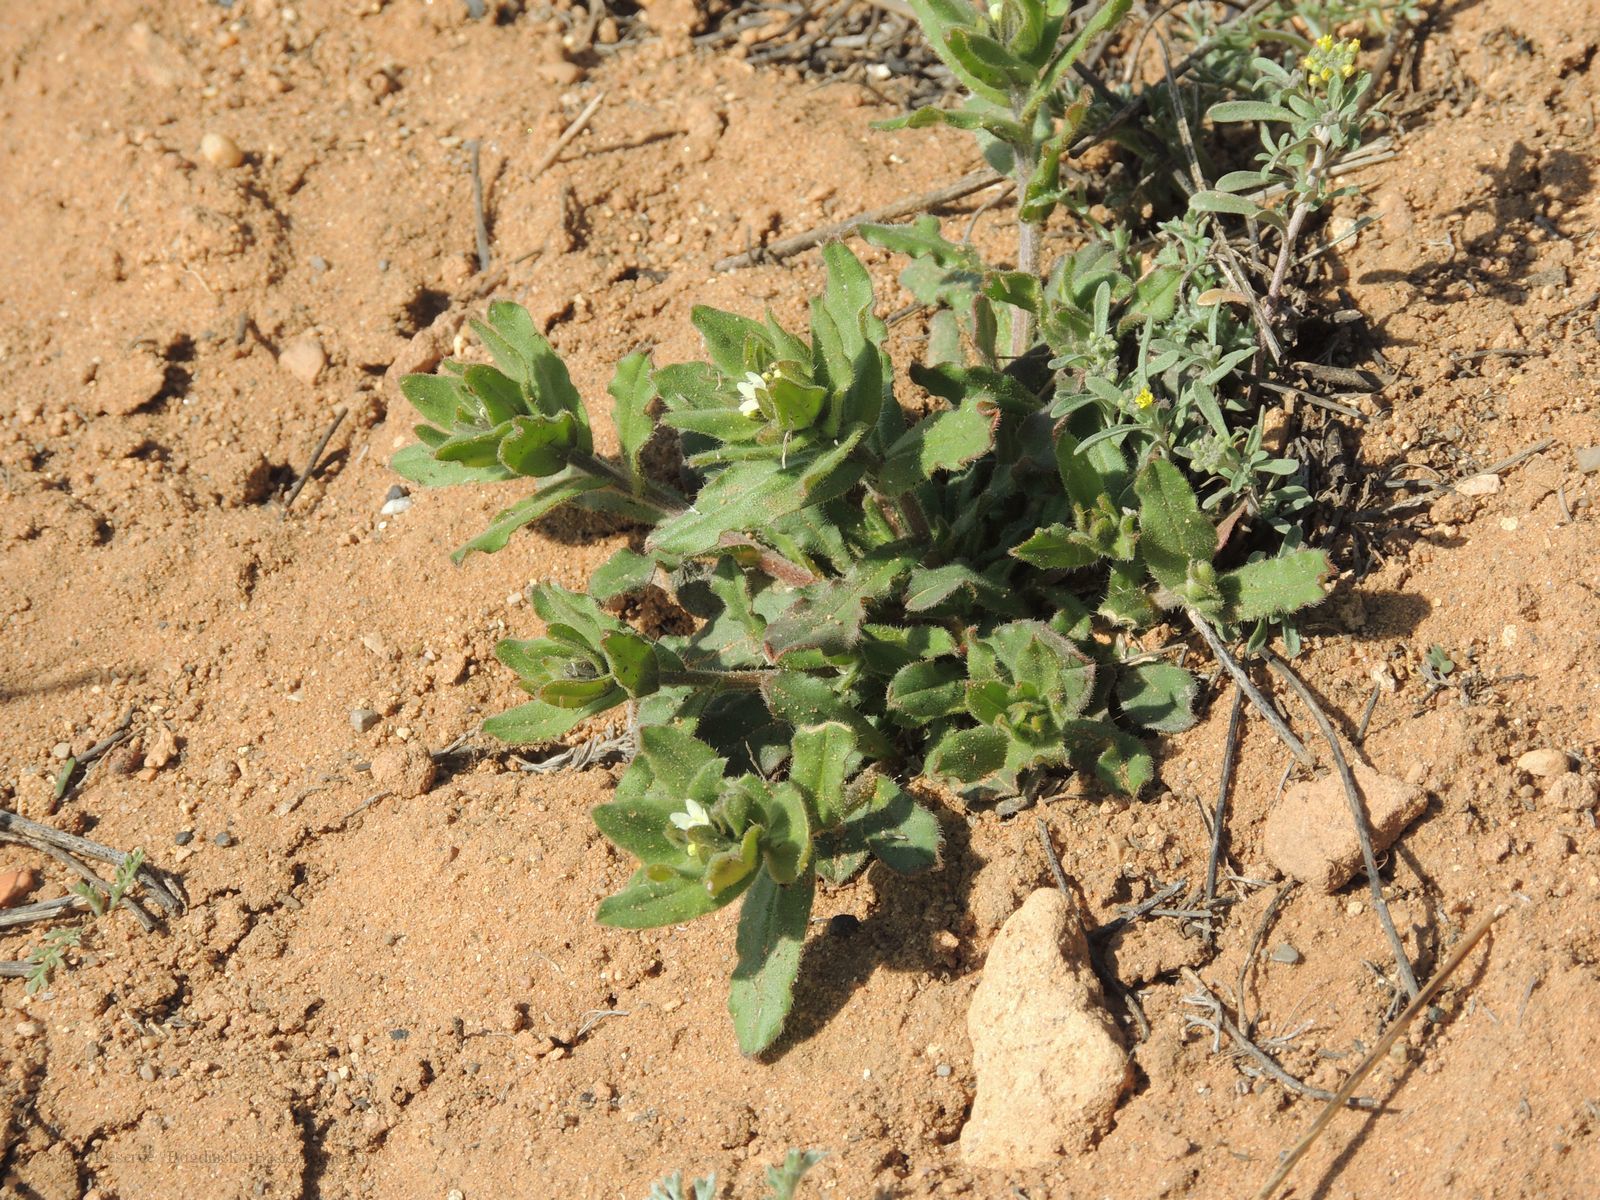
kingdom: Plantae
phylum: Tracheophyta
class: Magnoliopsida
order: Boraginales
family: Boraginaceae
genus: Buglossoides
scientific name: Buglossoides arvensis
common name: Corn gromwell
